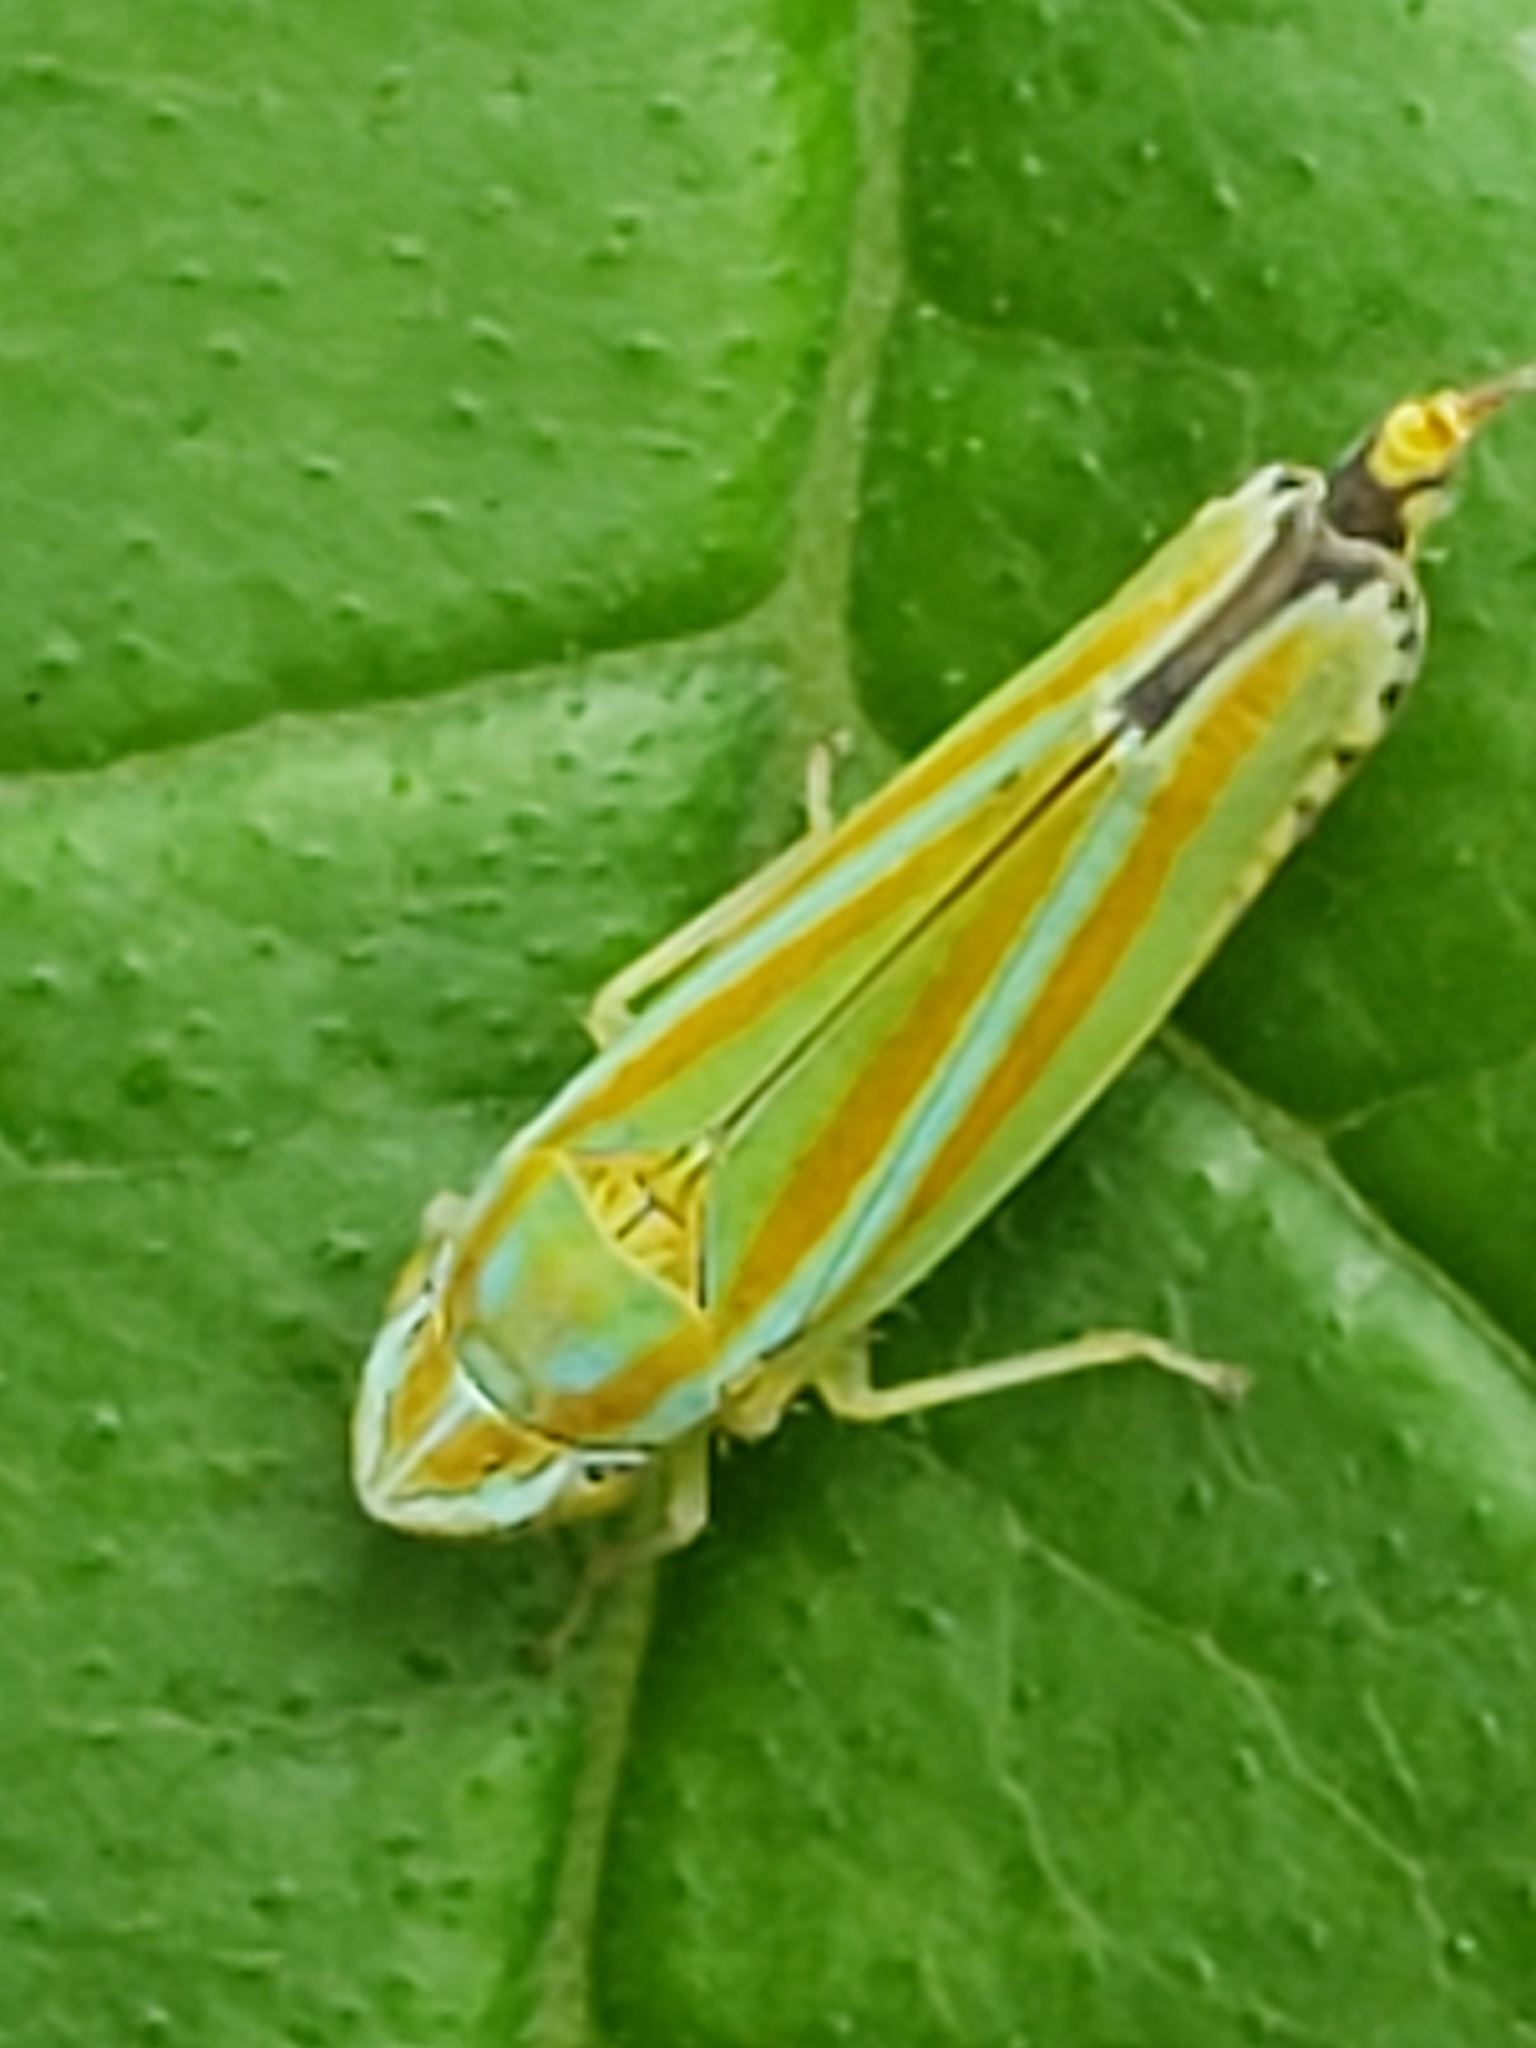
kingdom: Animalia
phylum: Arthropoda
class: Insecta
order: Hemiptera
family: Cicadellidae
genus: Graphocephala
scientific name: Graphocephala versuta
